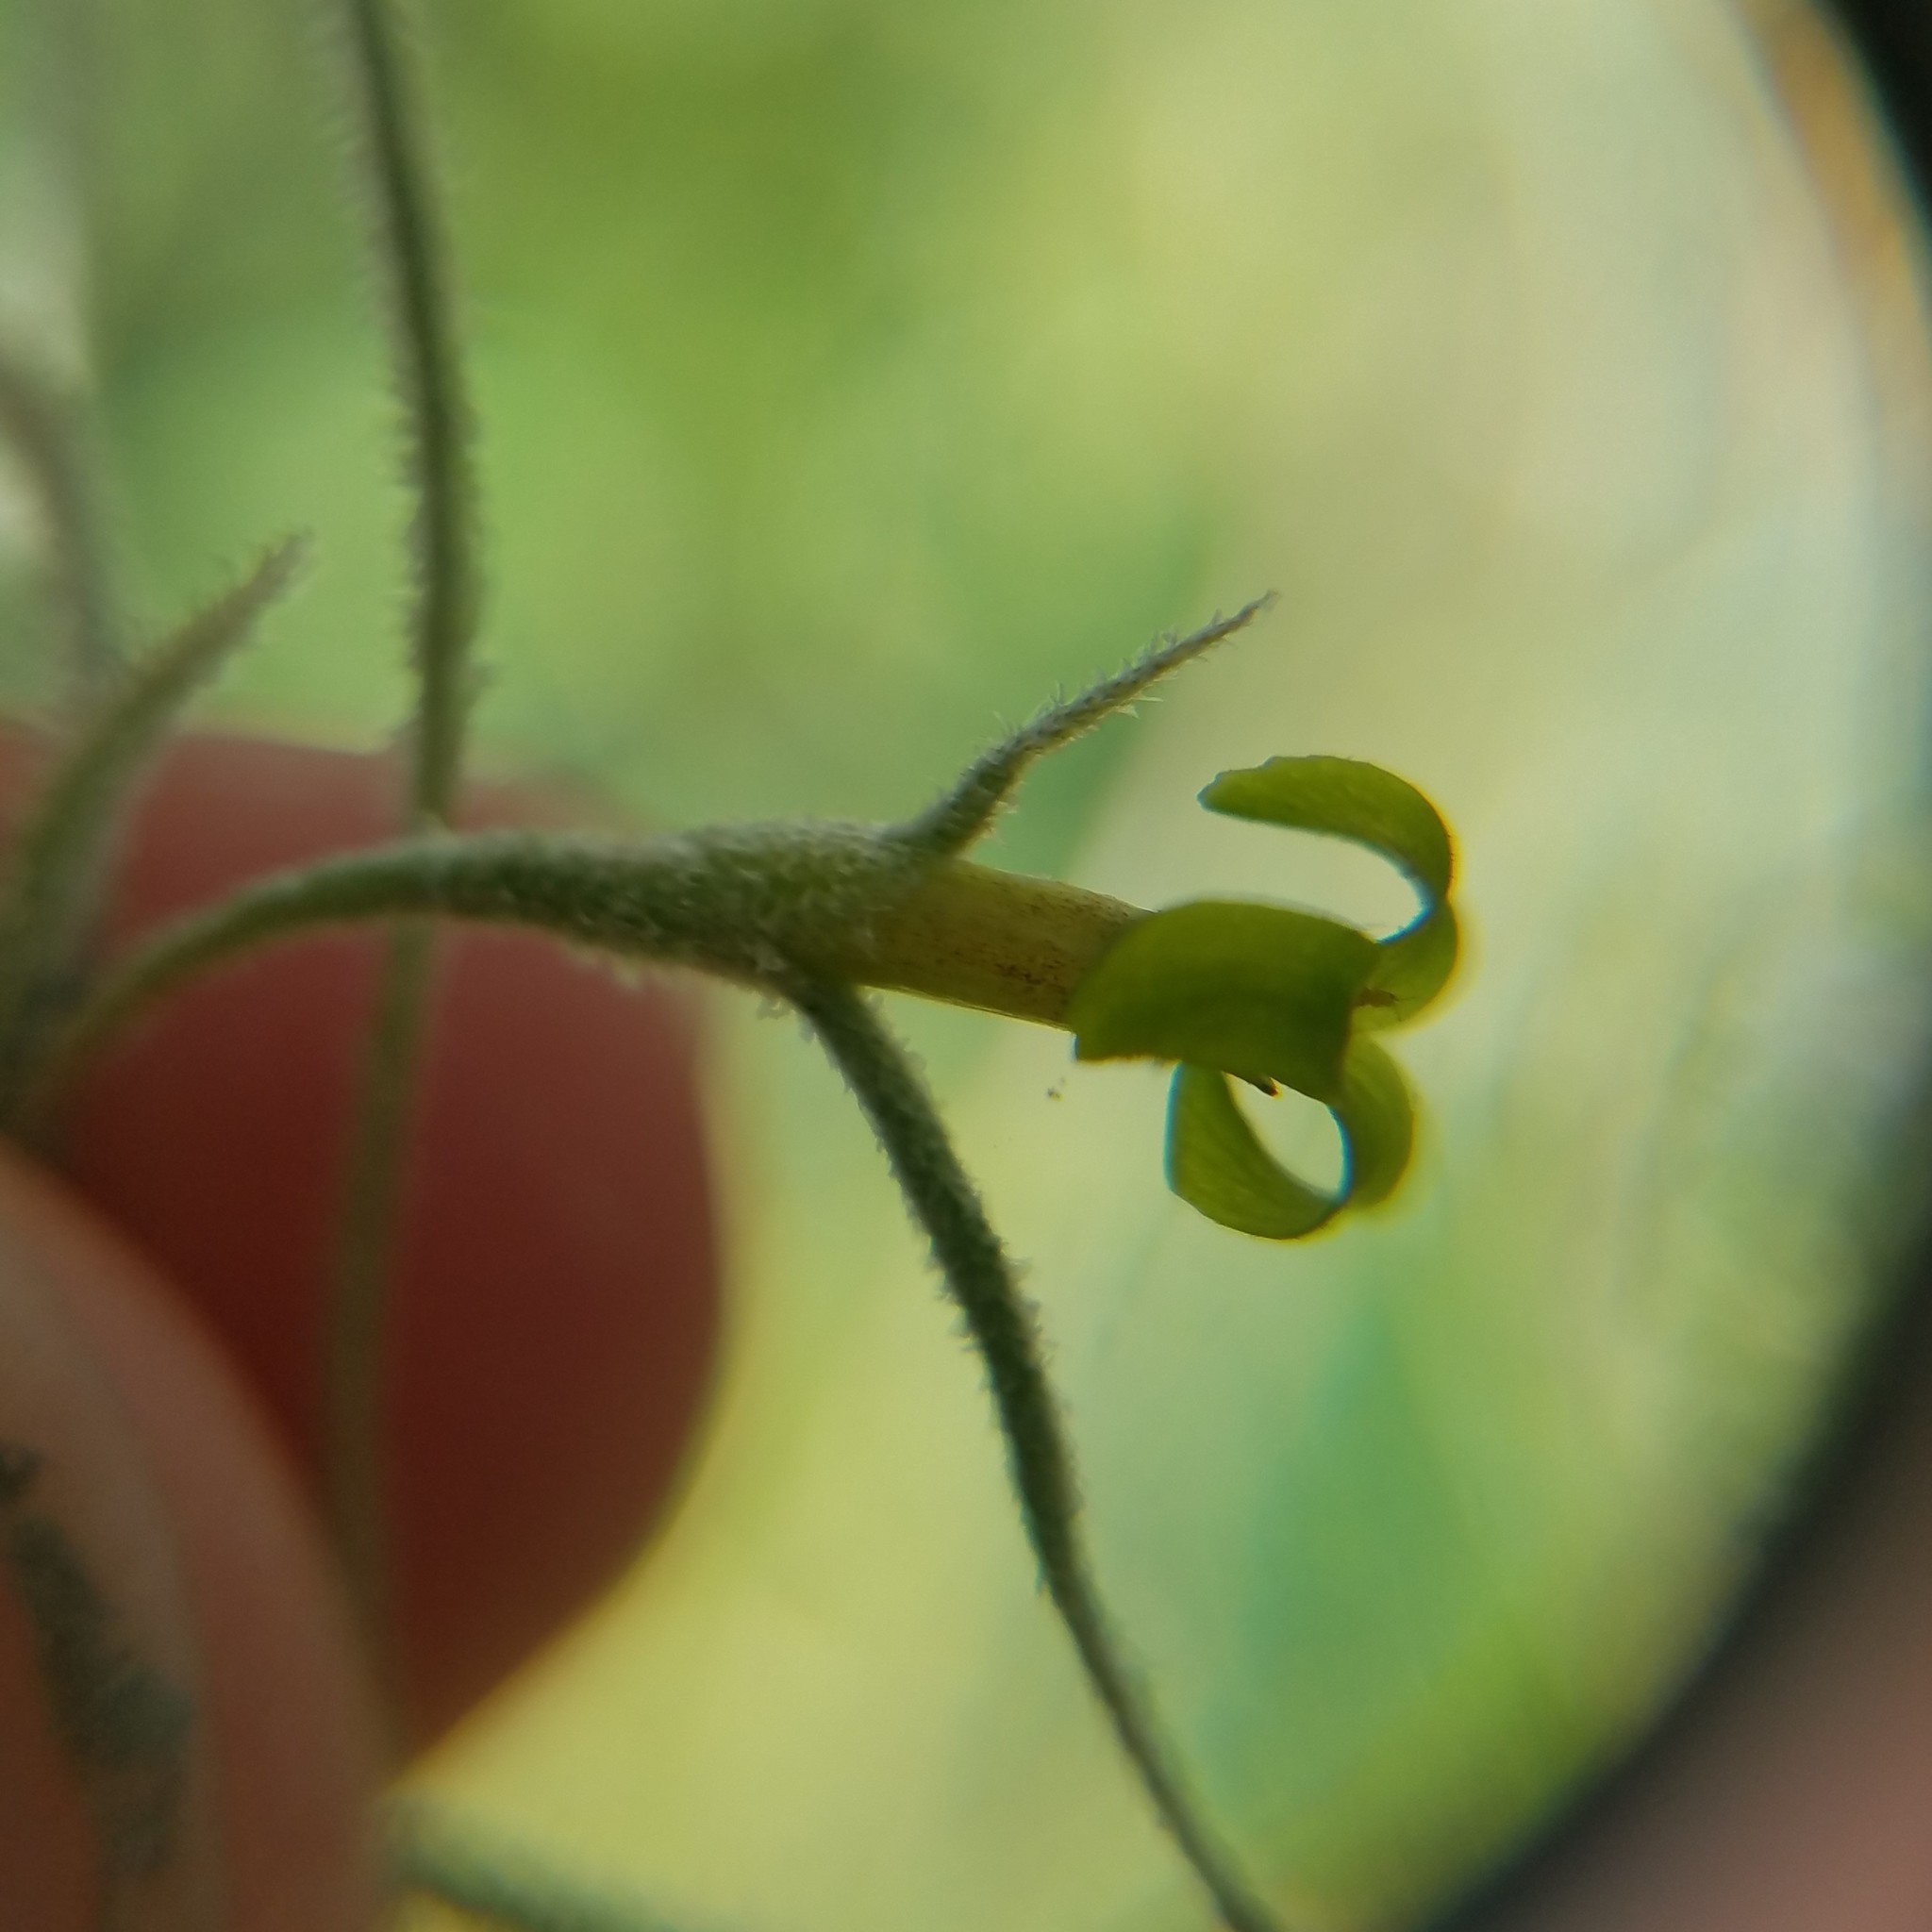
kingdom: Plantae
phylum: Tracheophyta
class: Liliopsida
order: Poales
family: Bromeliaceae
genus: Tillandsia
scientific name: Tillandsia usneoides
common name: Spanish moss
